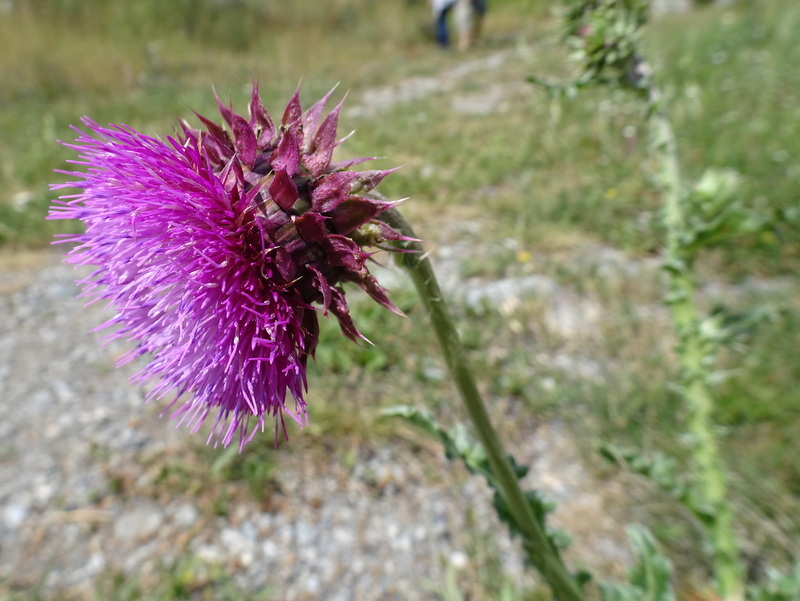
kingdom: Plantae
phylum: Tracheophyta
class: Magnoliopsida
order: Asterales
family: Asteraceae
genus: Carduus
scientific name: Carduus nutans
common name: Musk thistle
